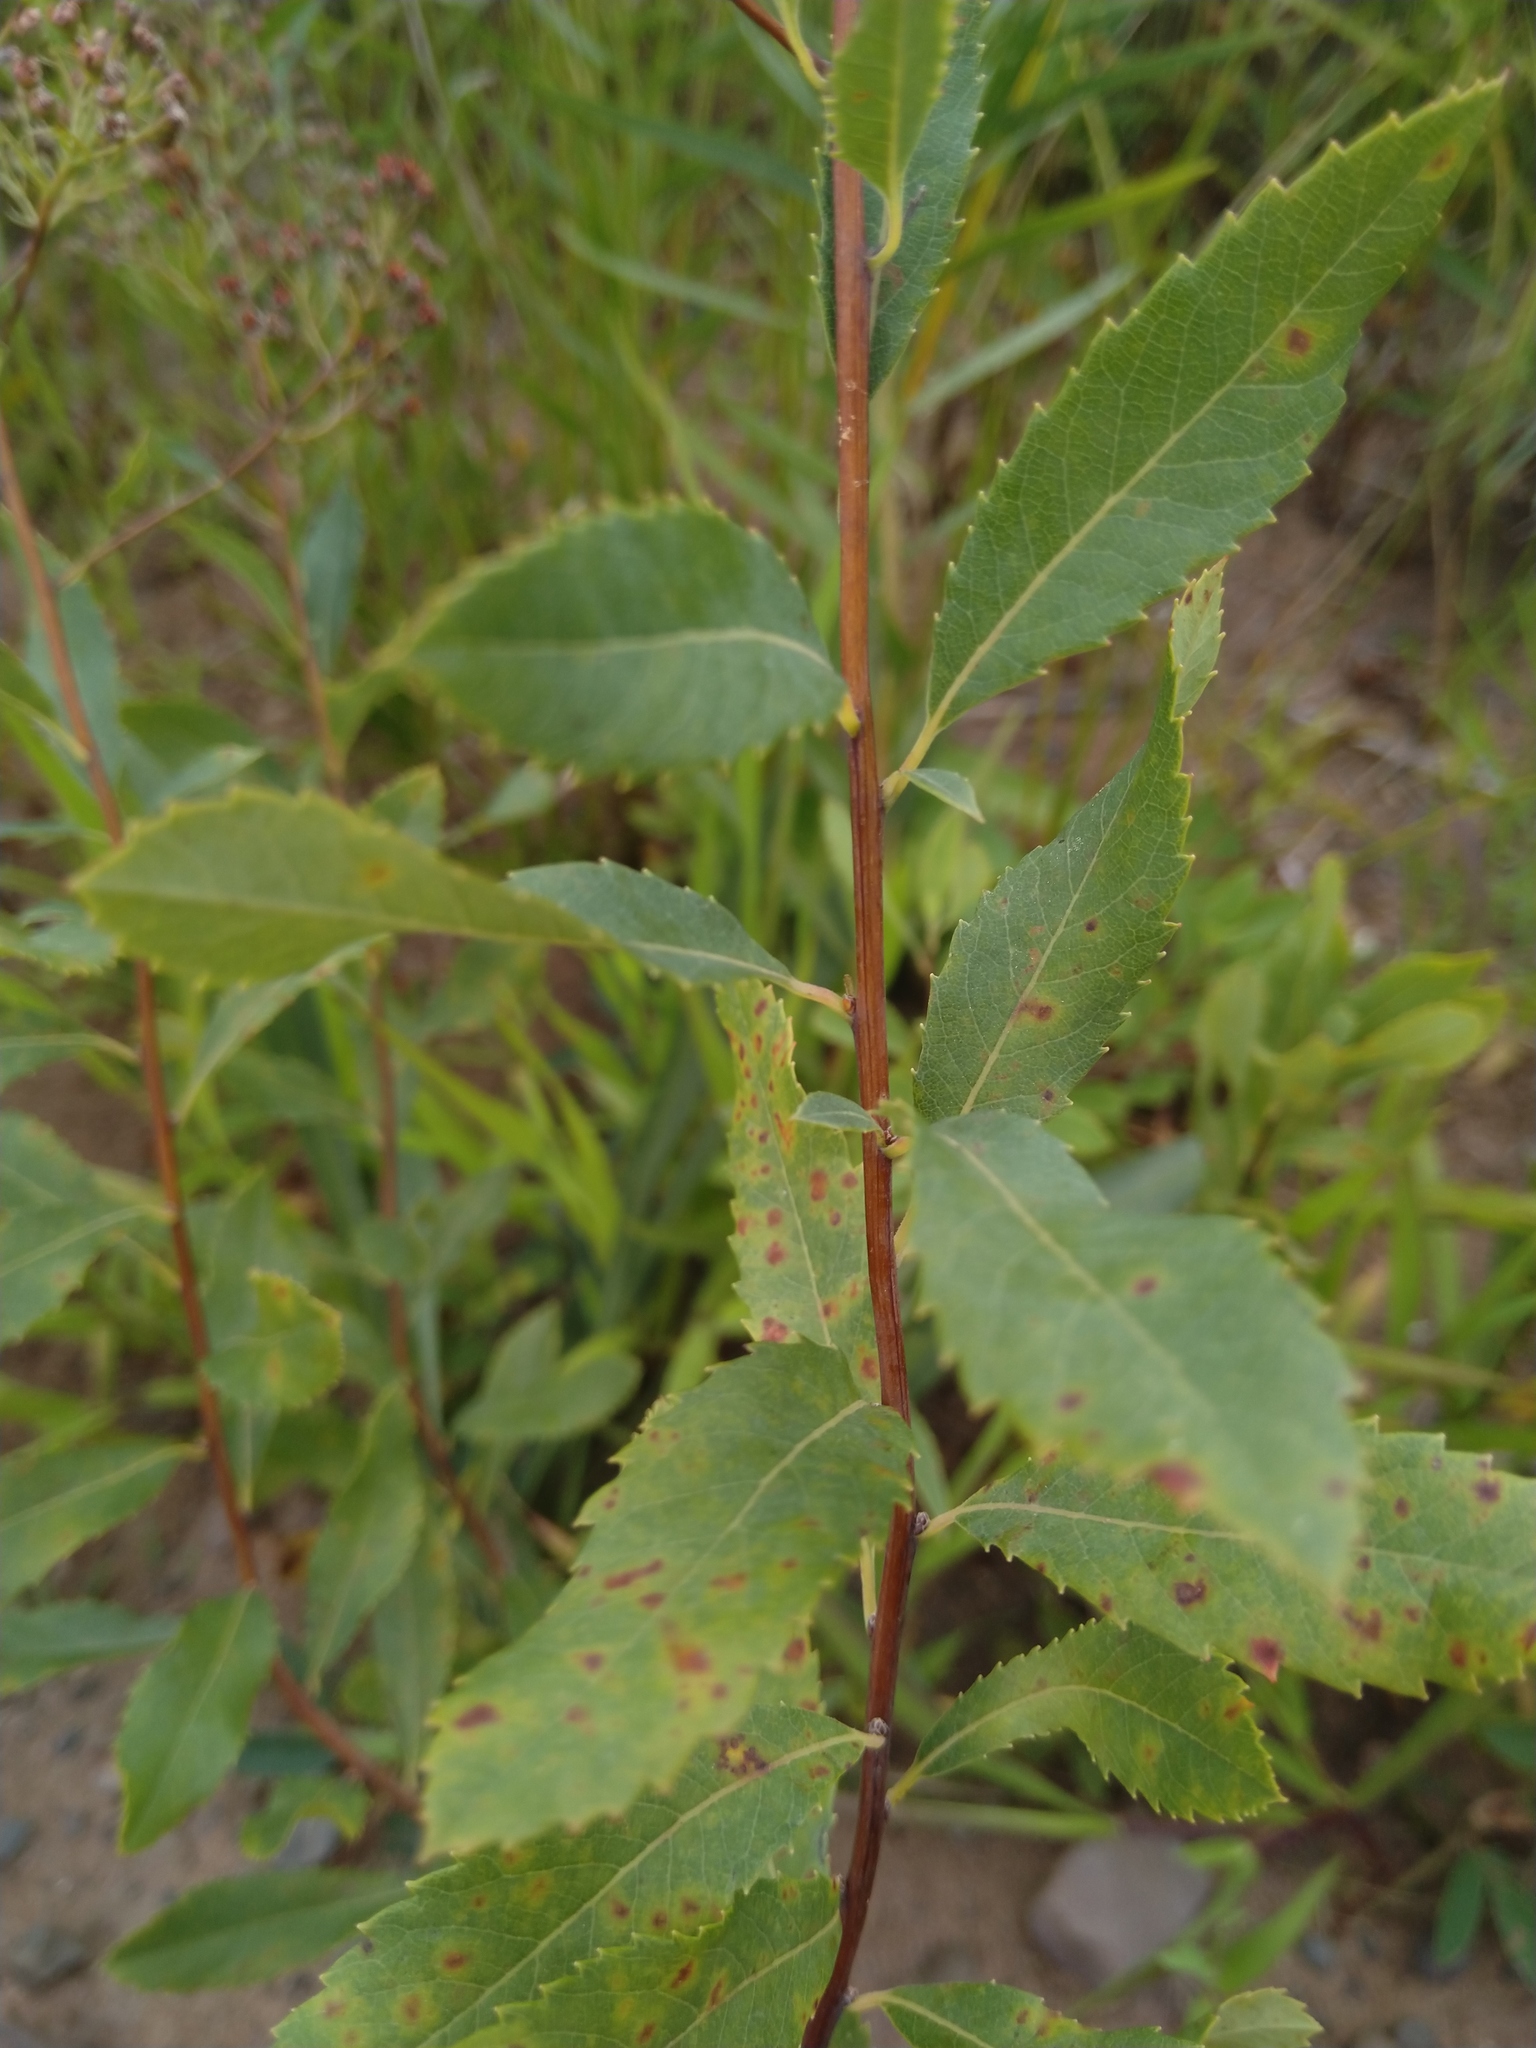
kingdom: Plantae
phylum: Tracheophyta
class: Magnoliopsida
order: Rosales
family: Rosaceae
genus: Spiraea
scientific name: Spiraea alba
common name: Pale bridewort
